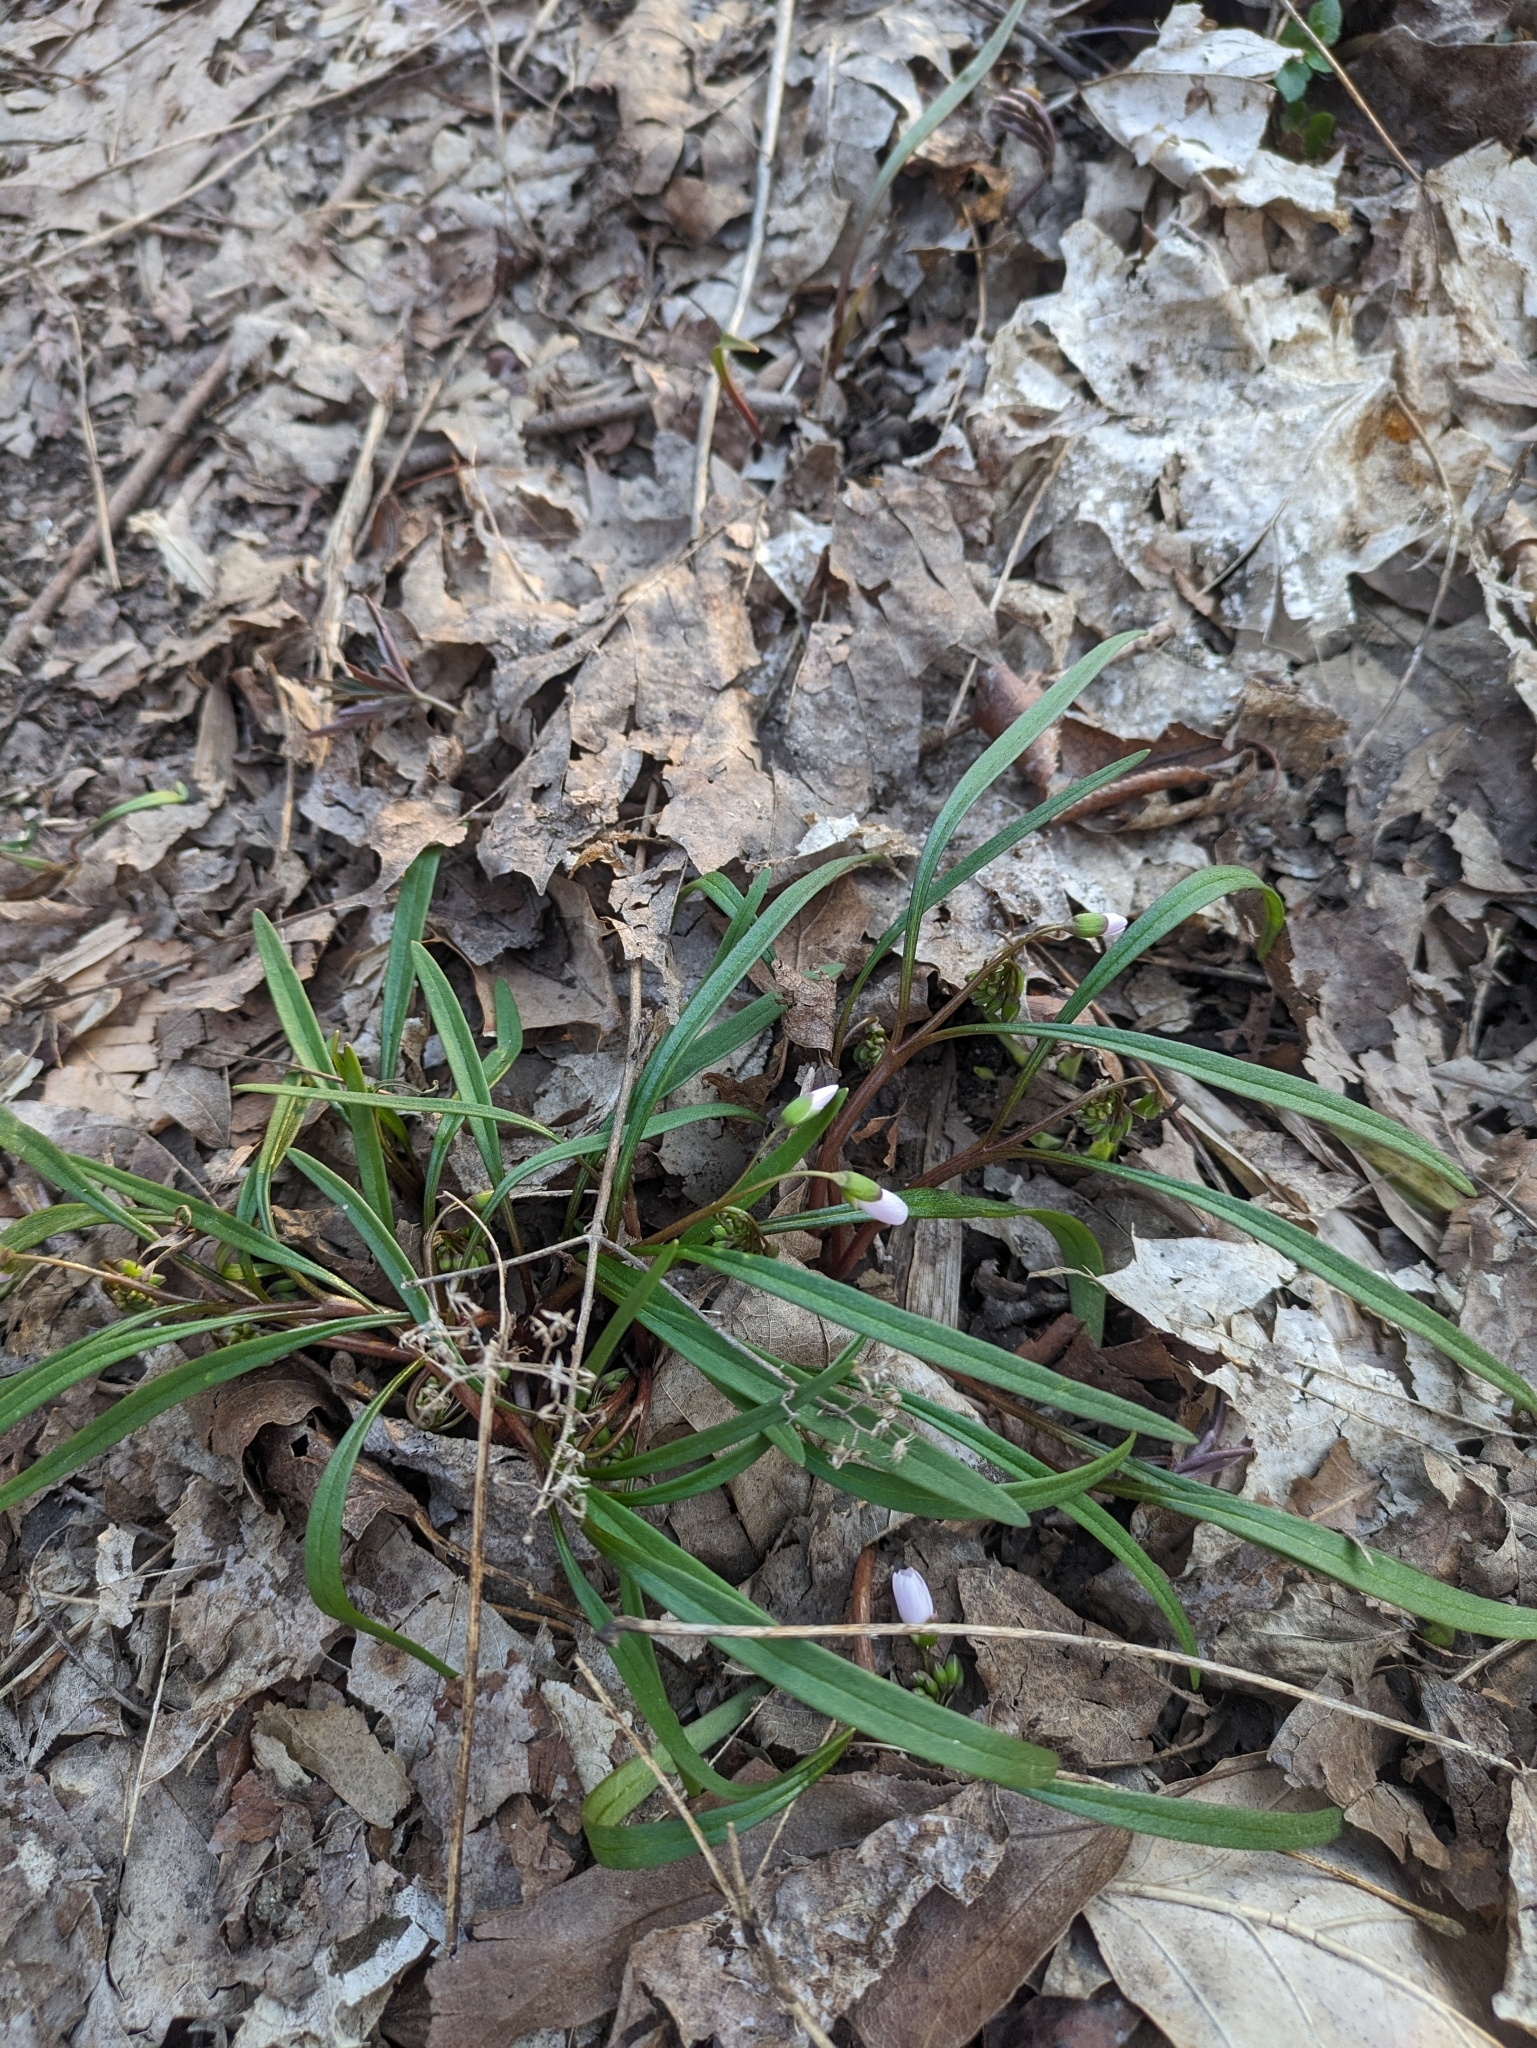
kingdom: Plantae
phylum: Tracheophyta
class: Magnoliopsida
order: Caryophyllales
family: Montiaceae
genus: Claytonia
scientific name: Claytonia virginica
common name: Virginia springbeauty
